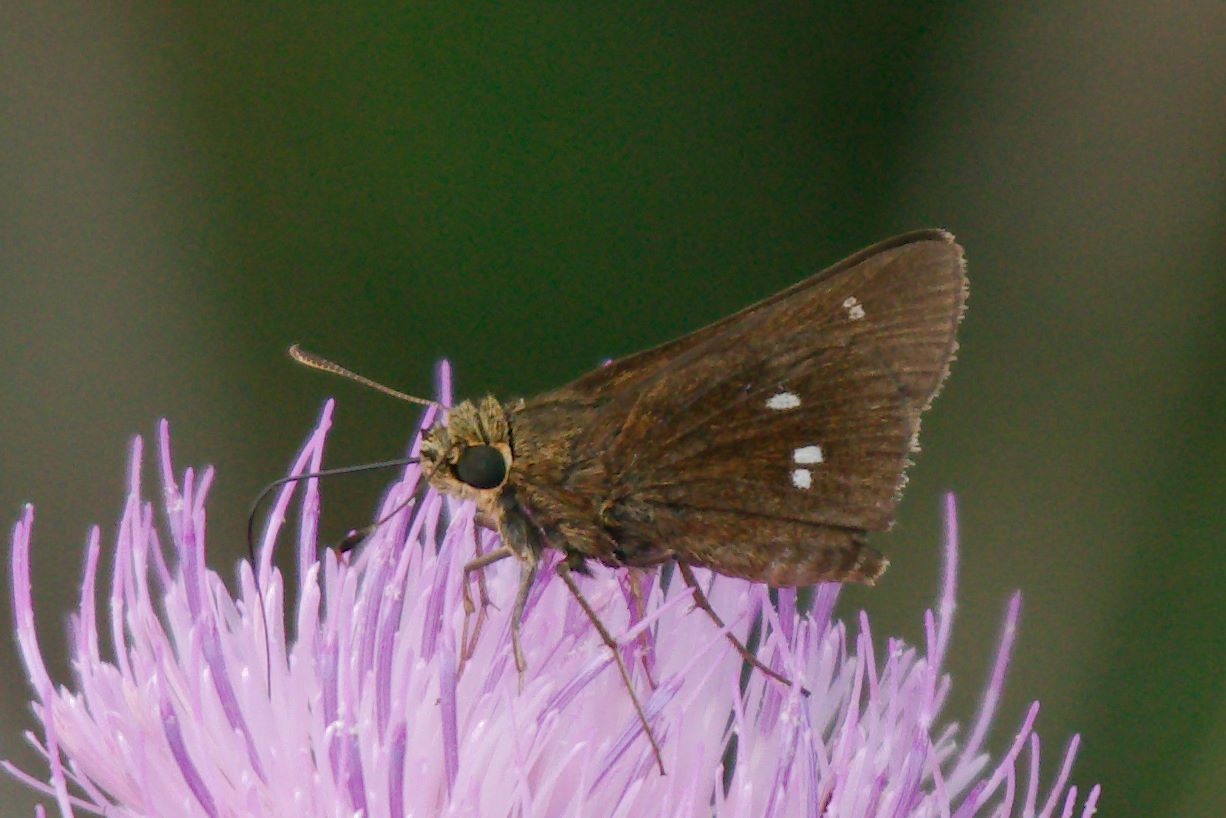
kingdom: Animalia
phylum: Arthropoda
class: Insecta
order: Lepidoptera
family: Hesperiidae
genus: Oligoria
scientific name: Oligoria maculata
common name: Twin-spot skipper
